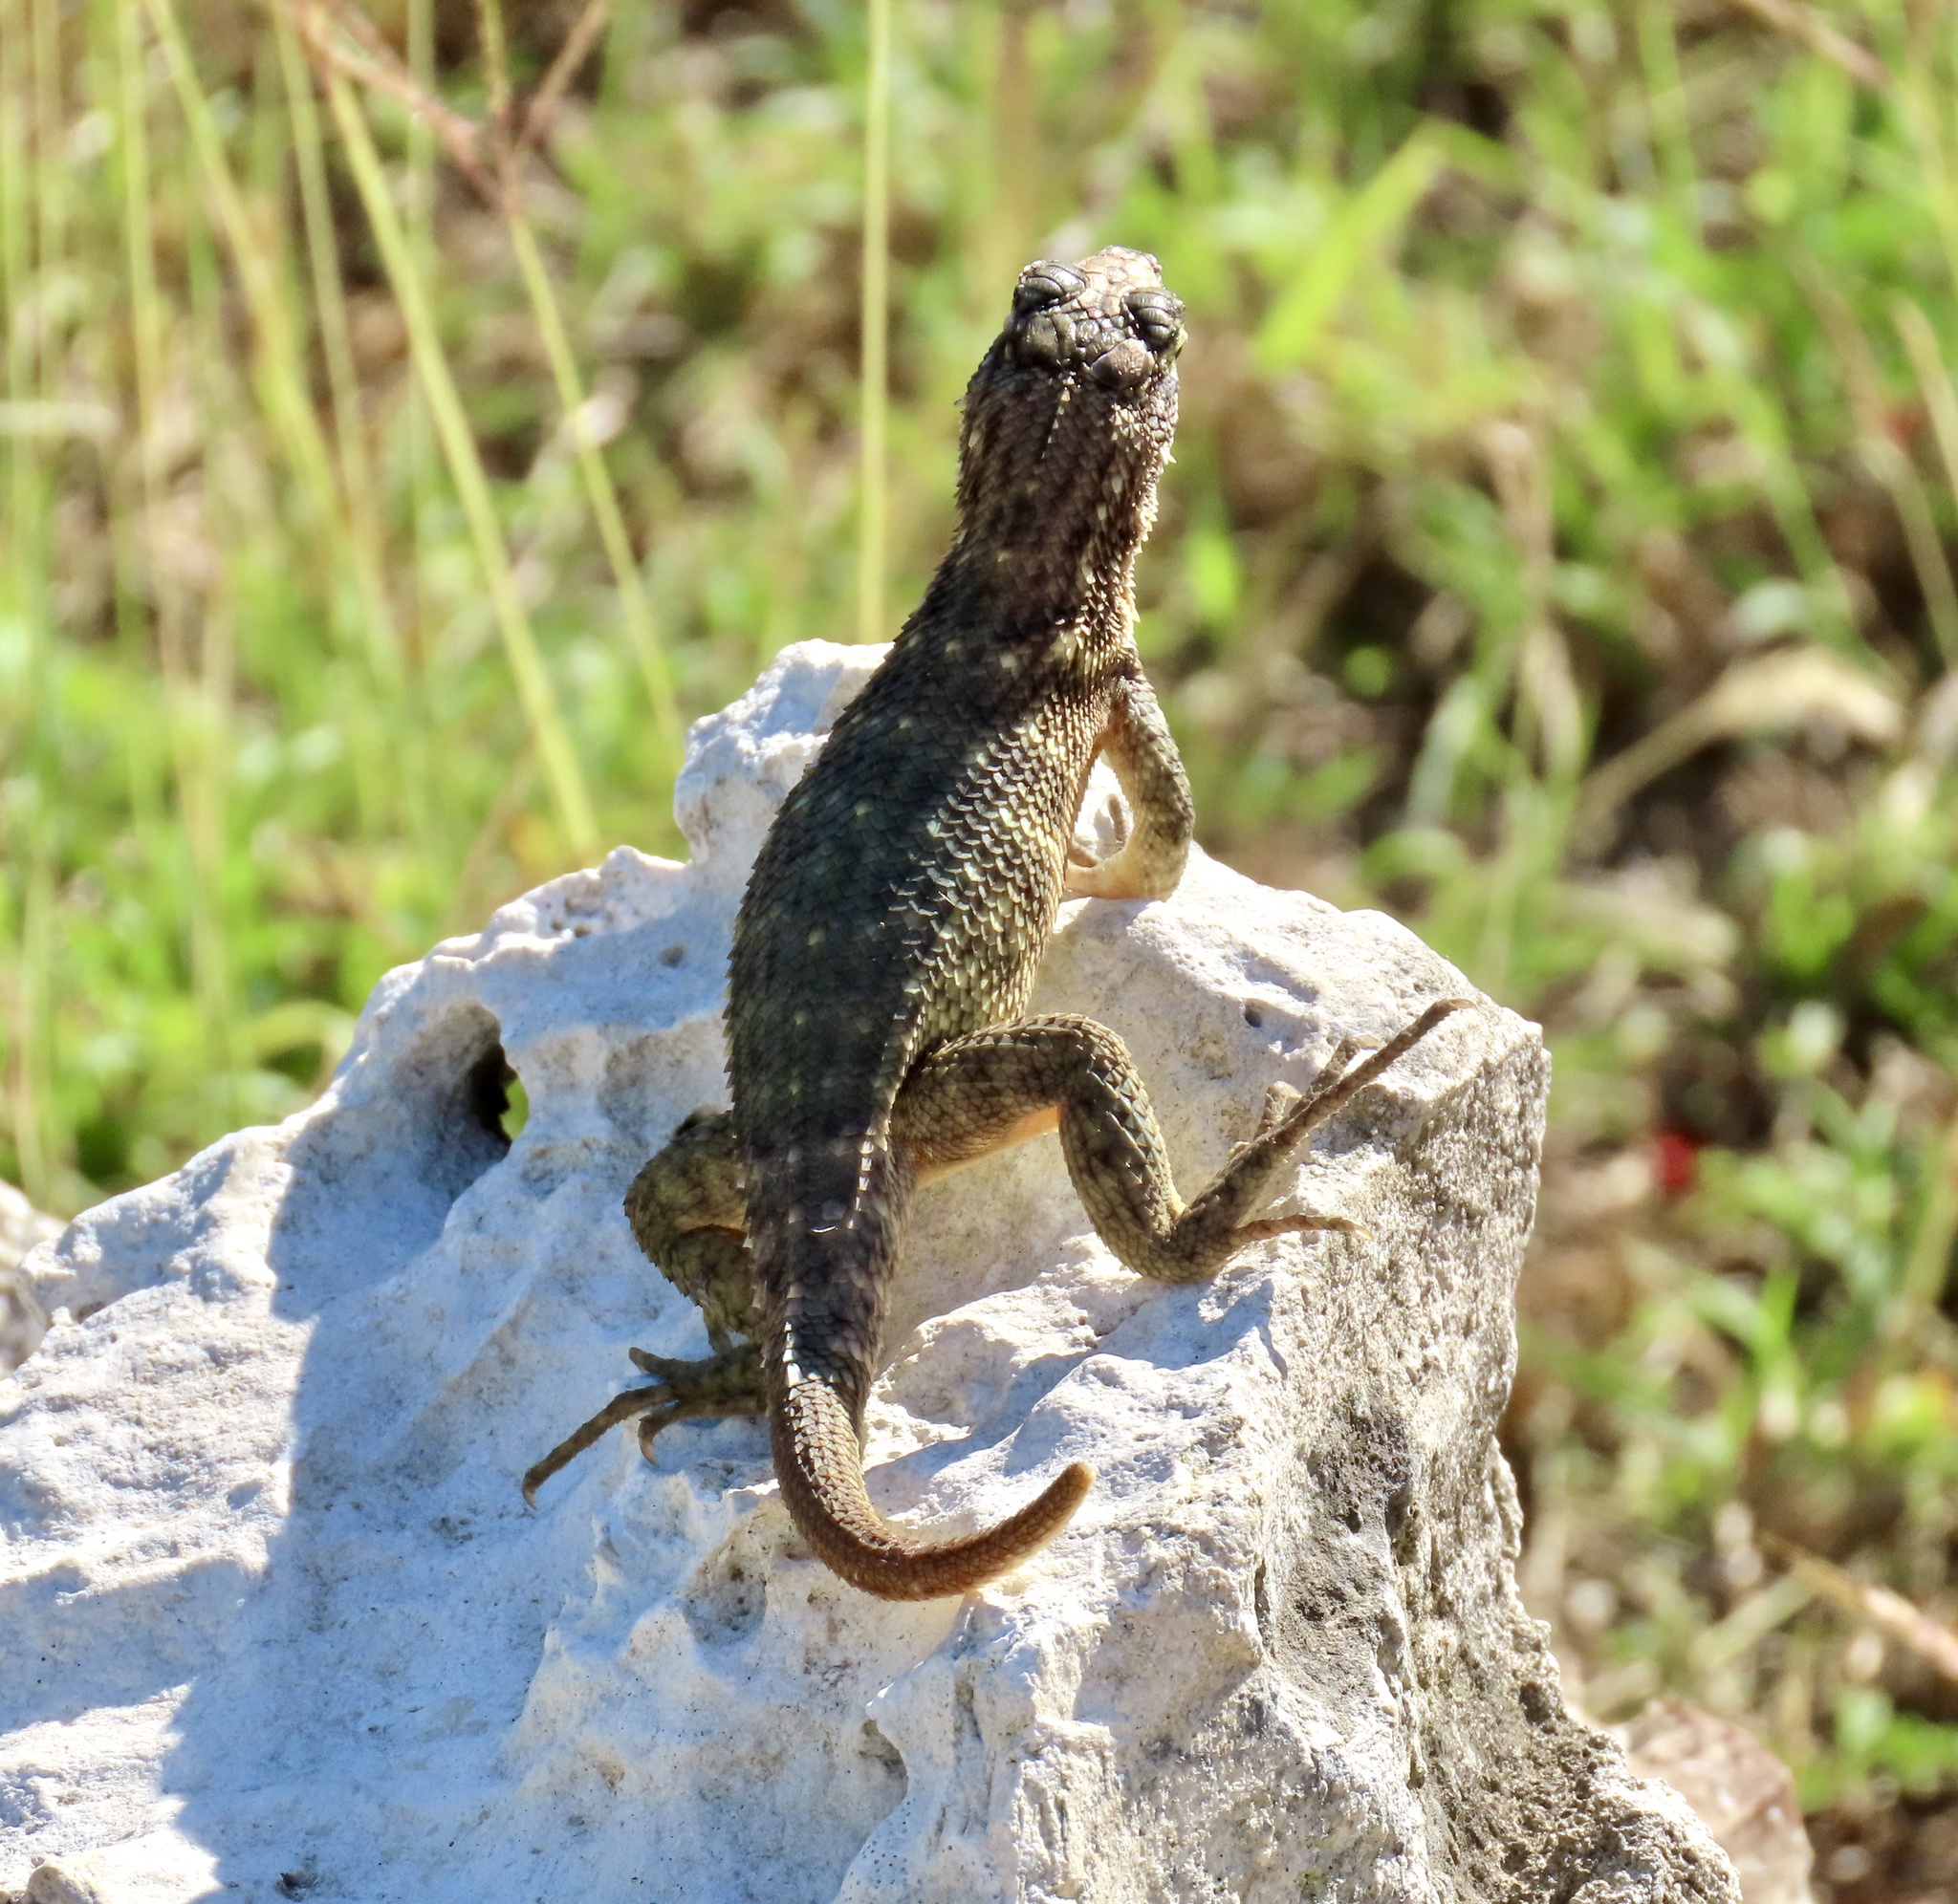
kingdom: Animalia
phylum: Chordata
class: Squamata
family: Leiocephalidae
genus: Leiocephalus
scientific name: Leiocephalus carinatus
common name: Northern curly-tailed lizard
